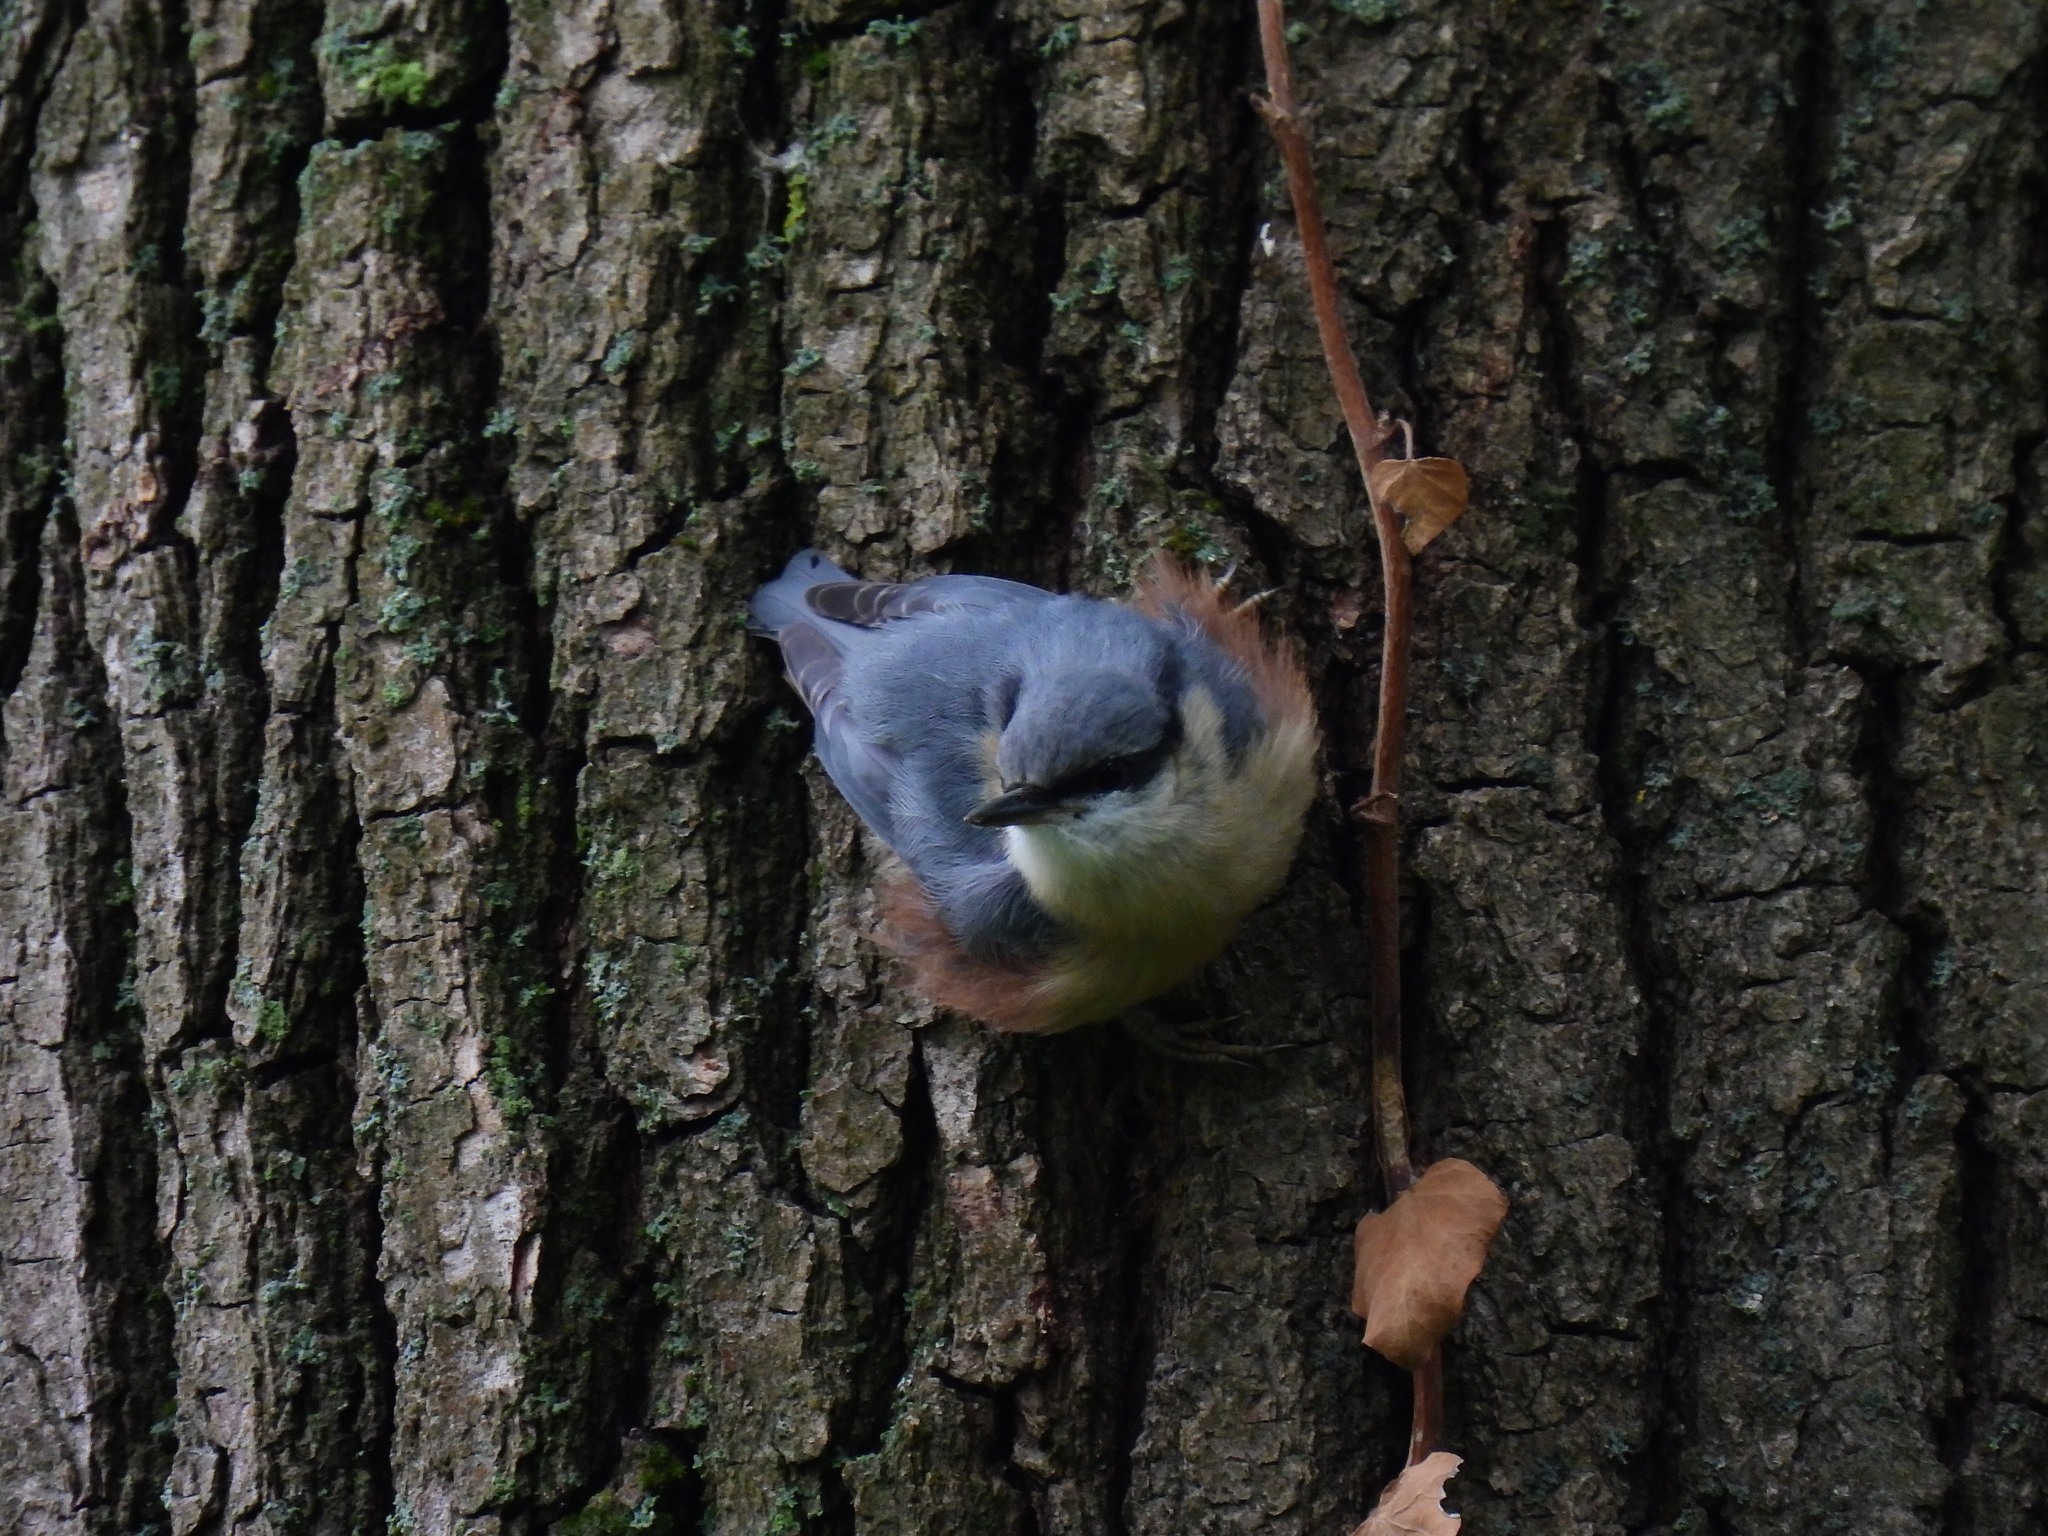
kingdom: Animalia
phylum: Chordata
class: Aves
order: Passeriformes
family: Sittidae
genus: Sitta
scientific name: Sitta europaea
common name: Eurasian nuthatch
